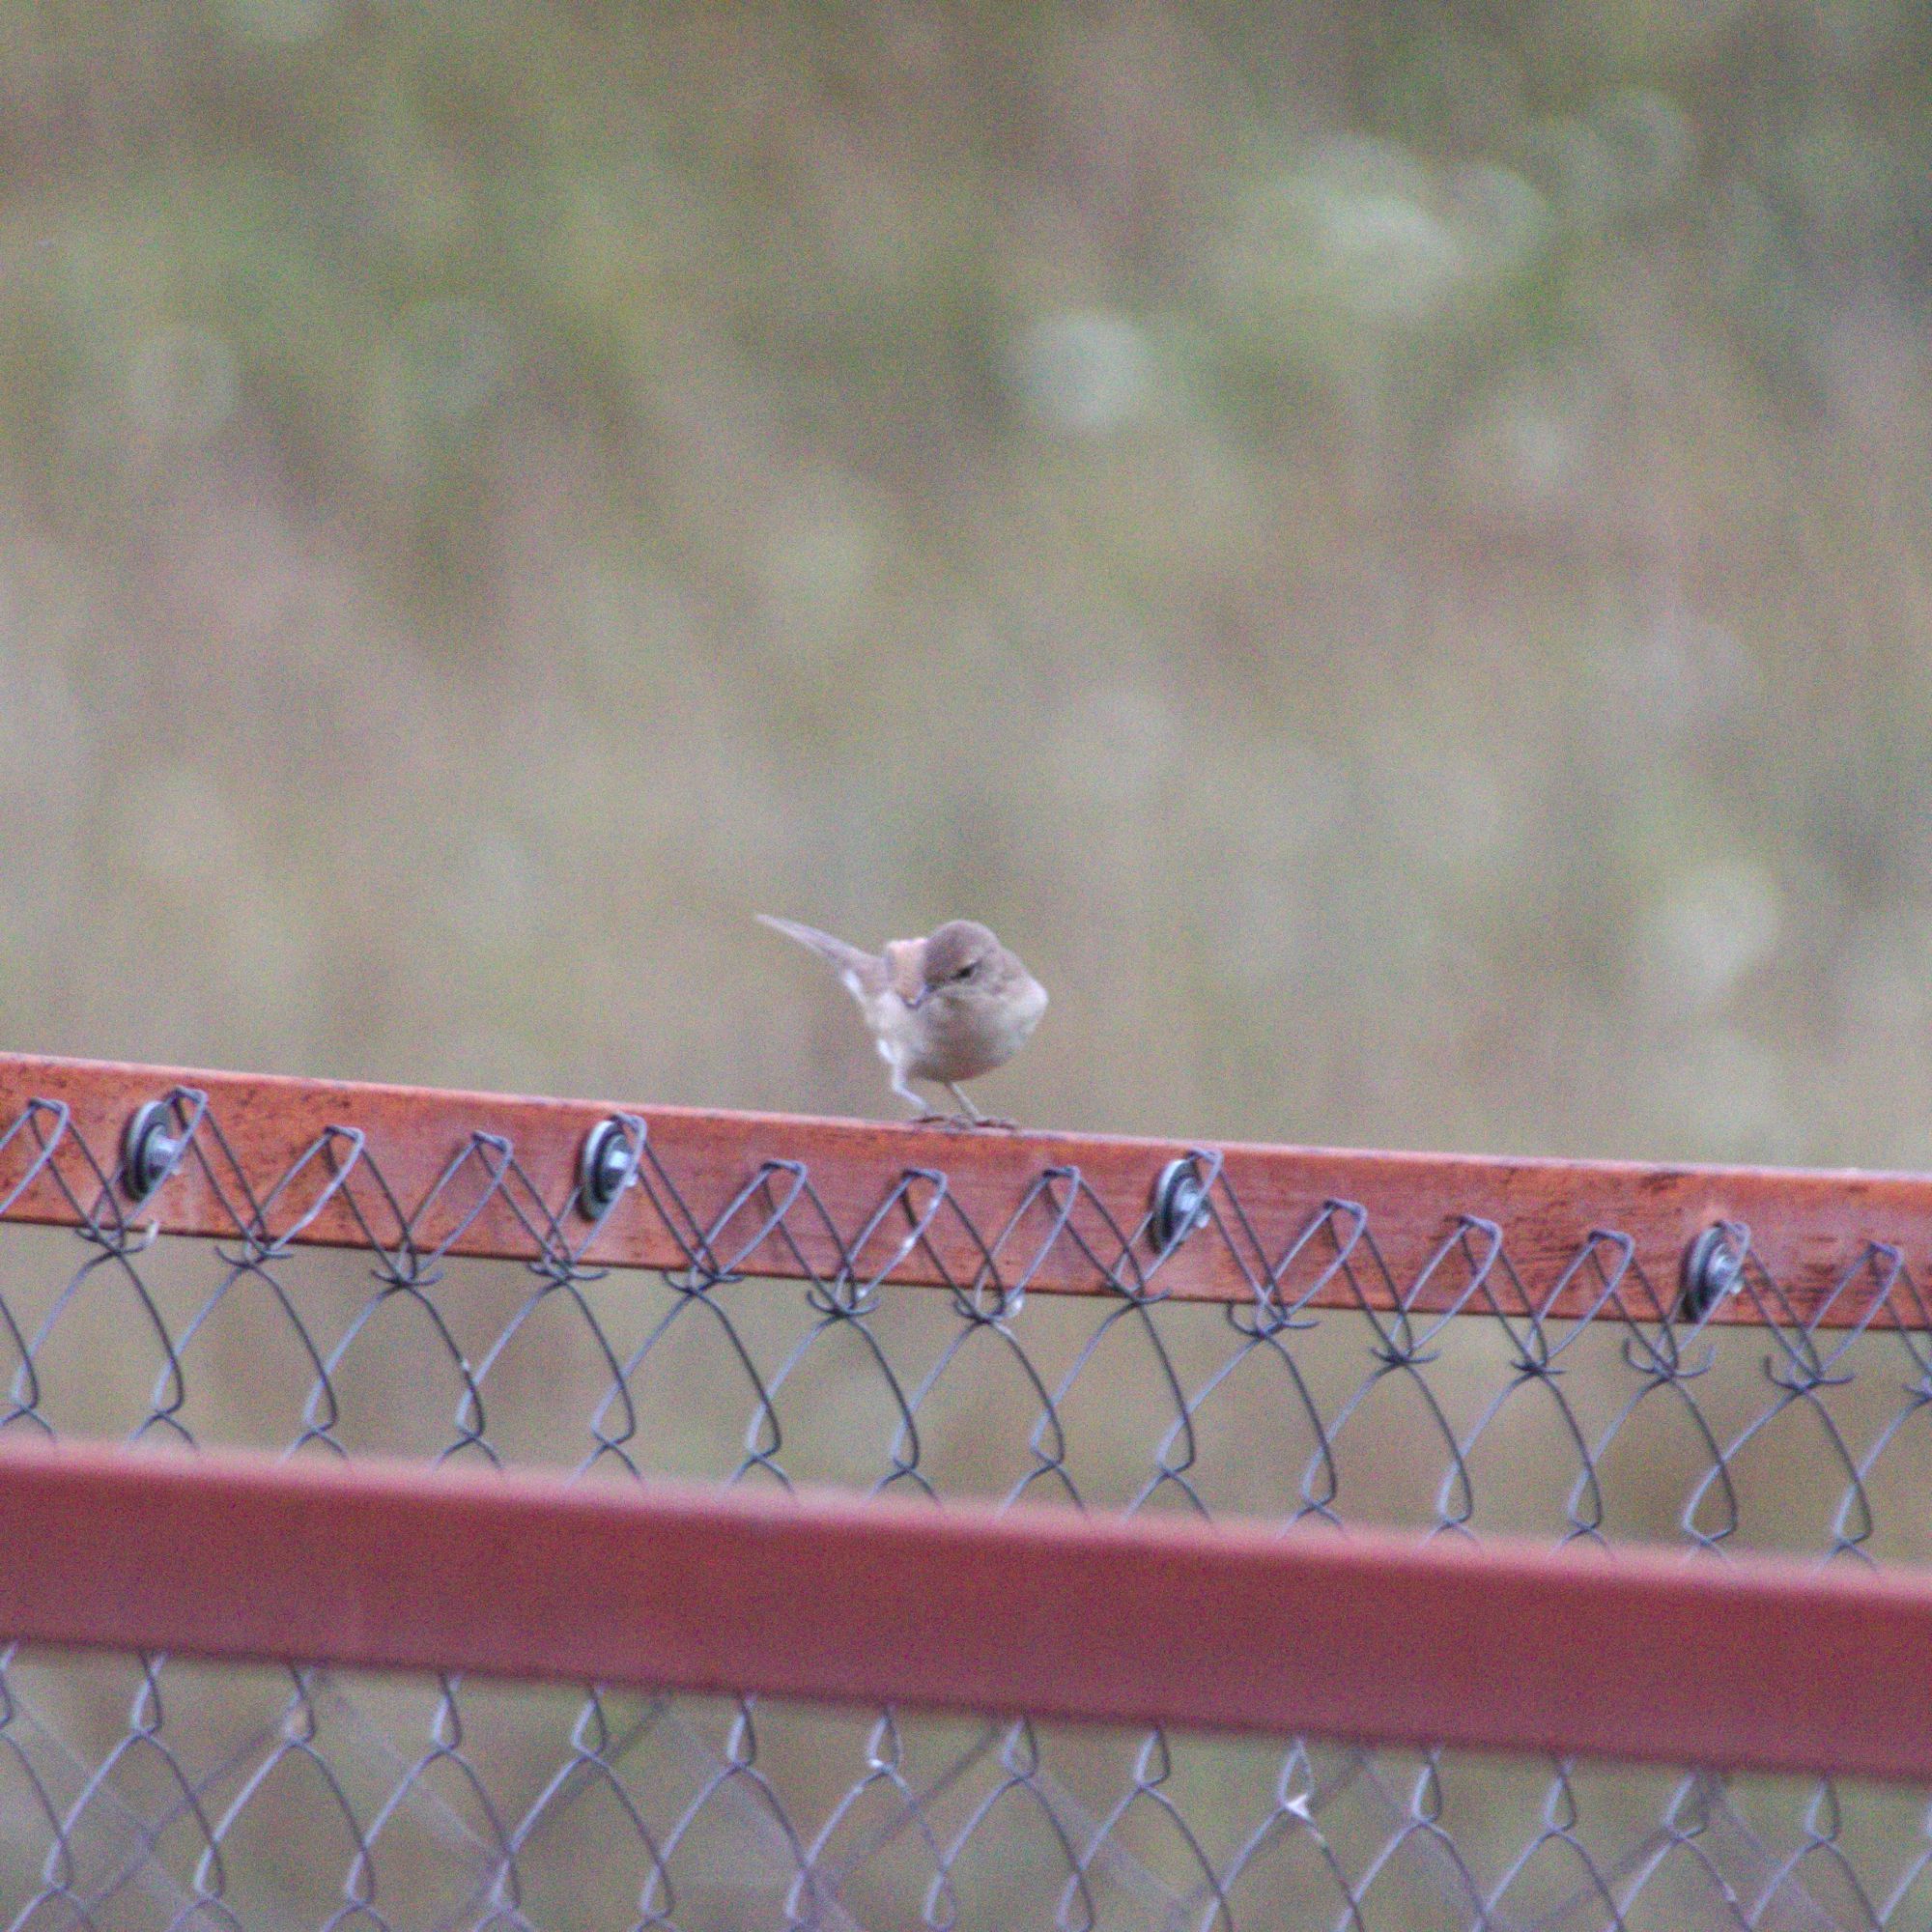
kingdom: Animalia
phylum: Chordata
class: Aves
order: Passeriformes
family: Sylviidae
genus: Sylvia
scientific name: Sylvia communis
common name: Common whitethroat
